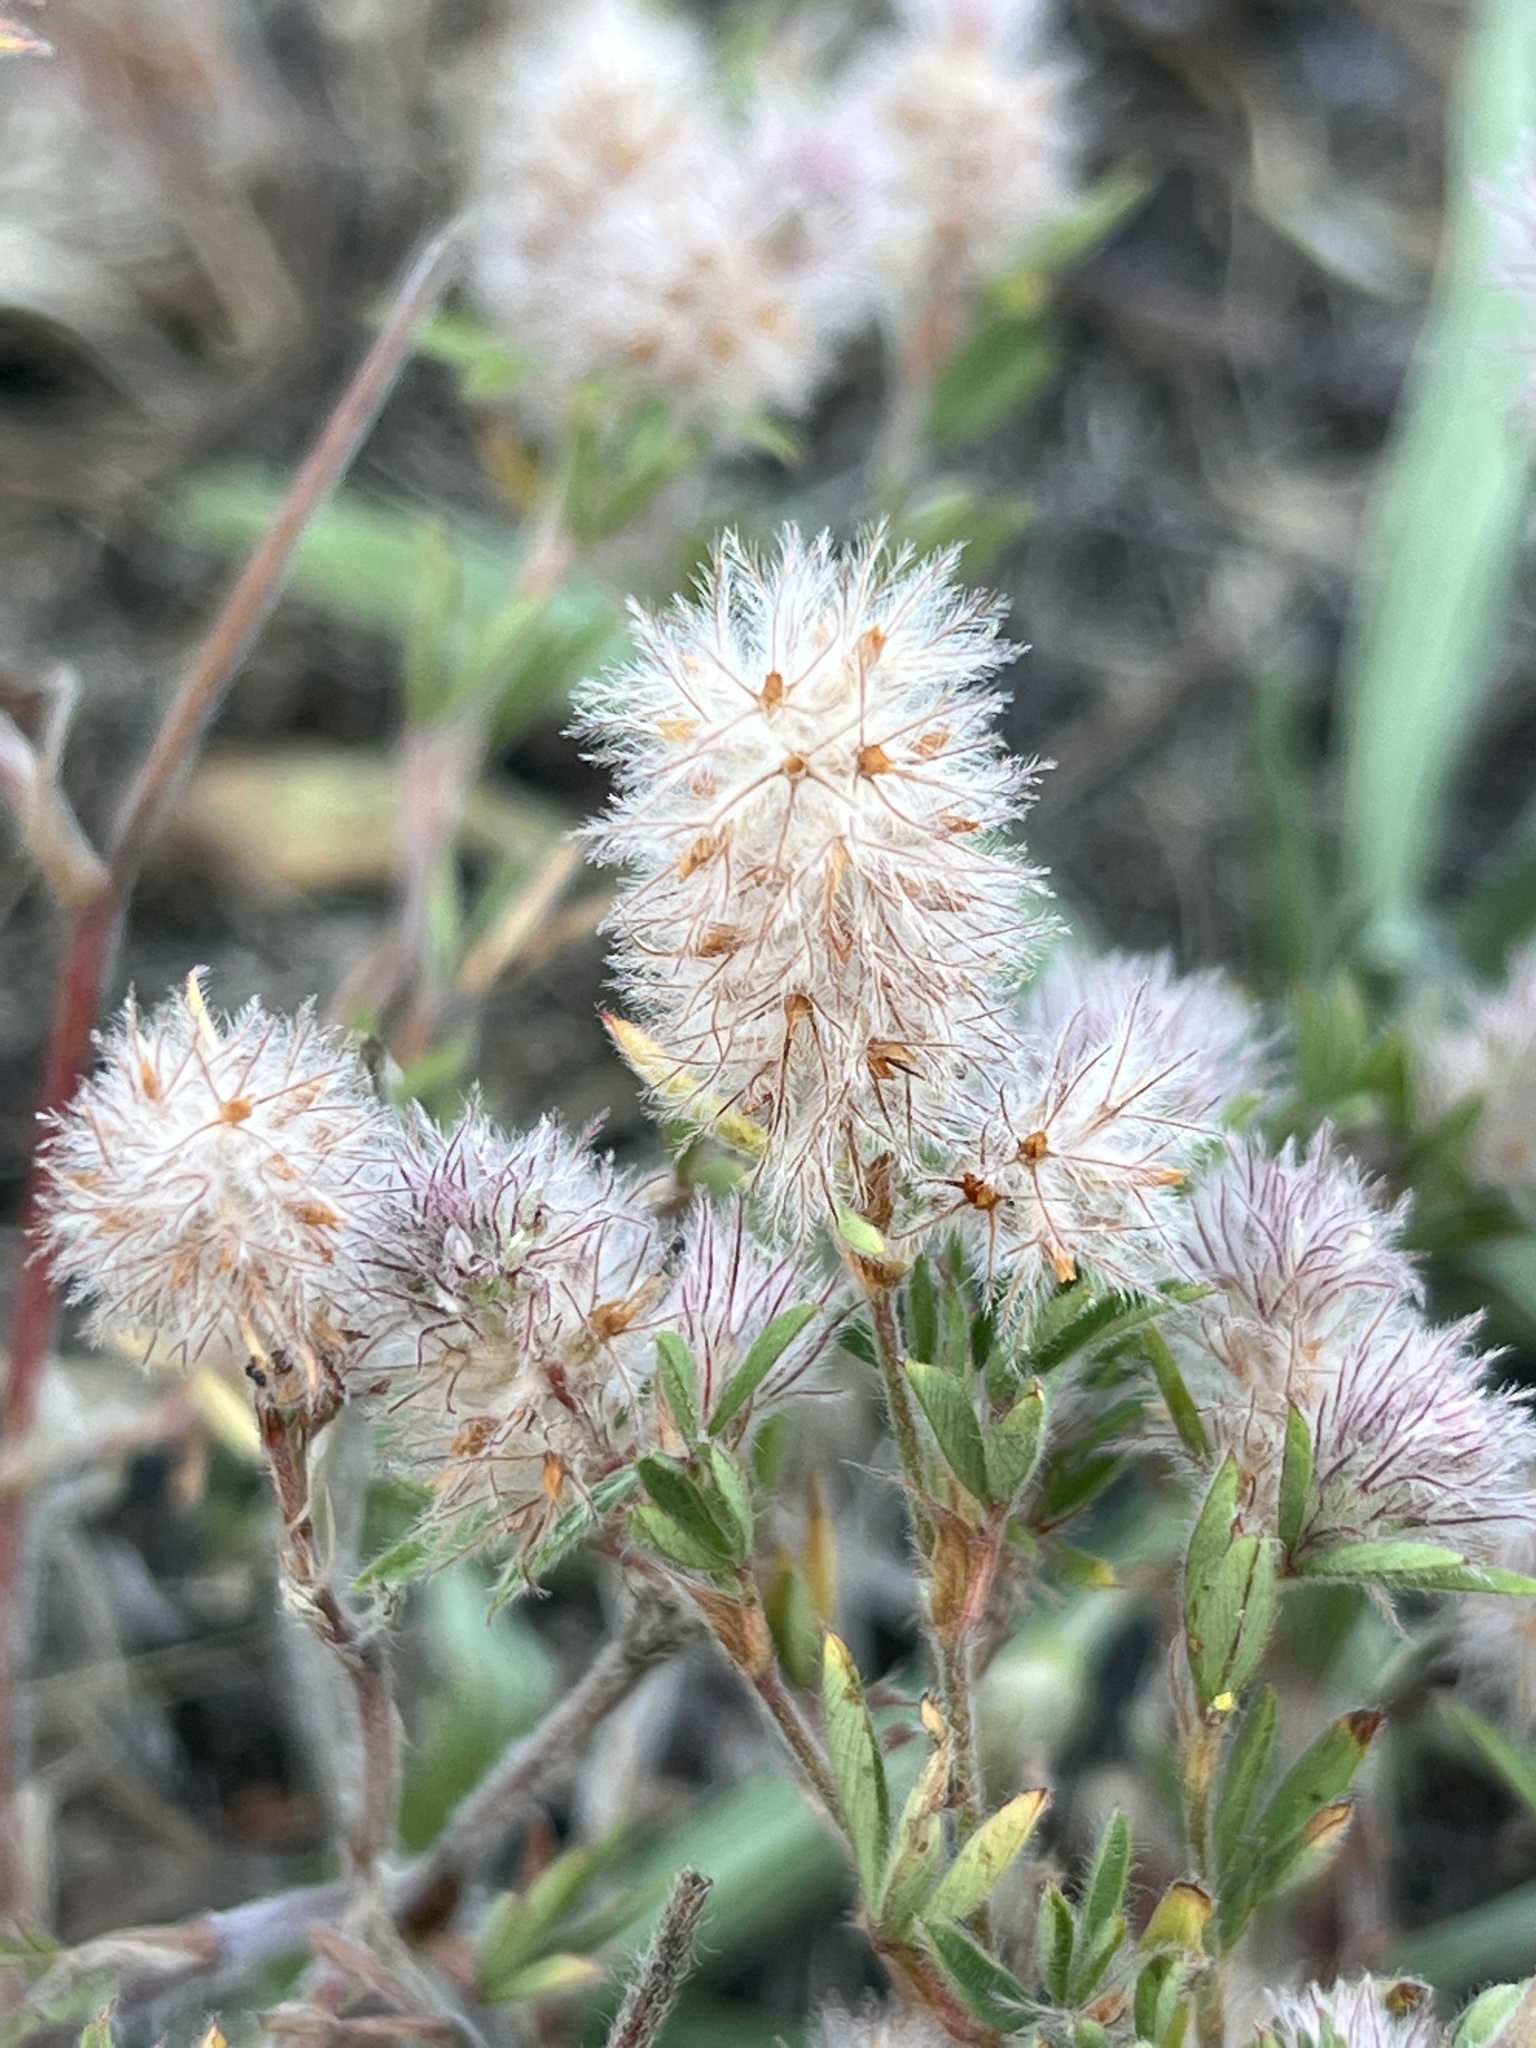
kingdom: Plantae
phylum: Tracheophyta
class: Magnoliopsida
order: Fabales
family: Fabaceae
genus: Trifolium
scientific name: Trifolium arvense
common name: Hare's-foot clover
